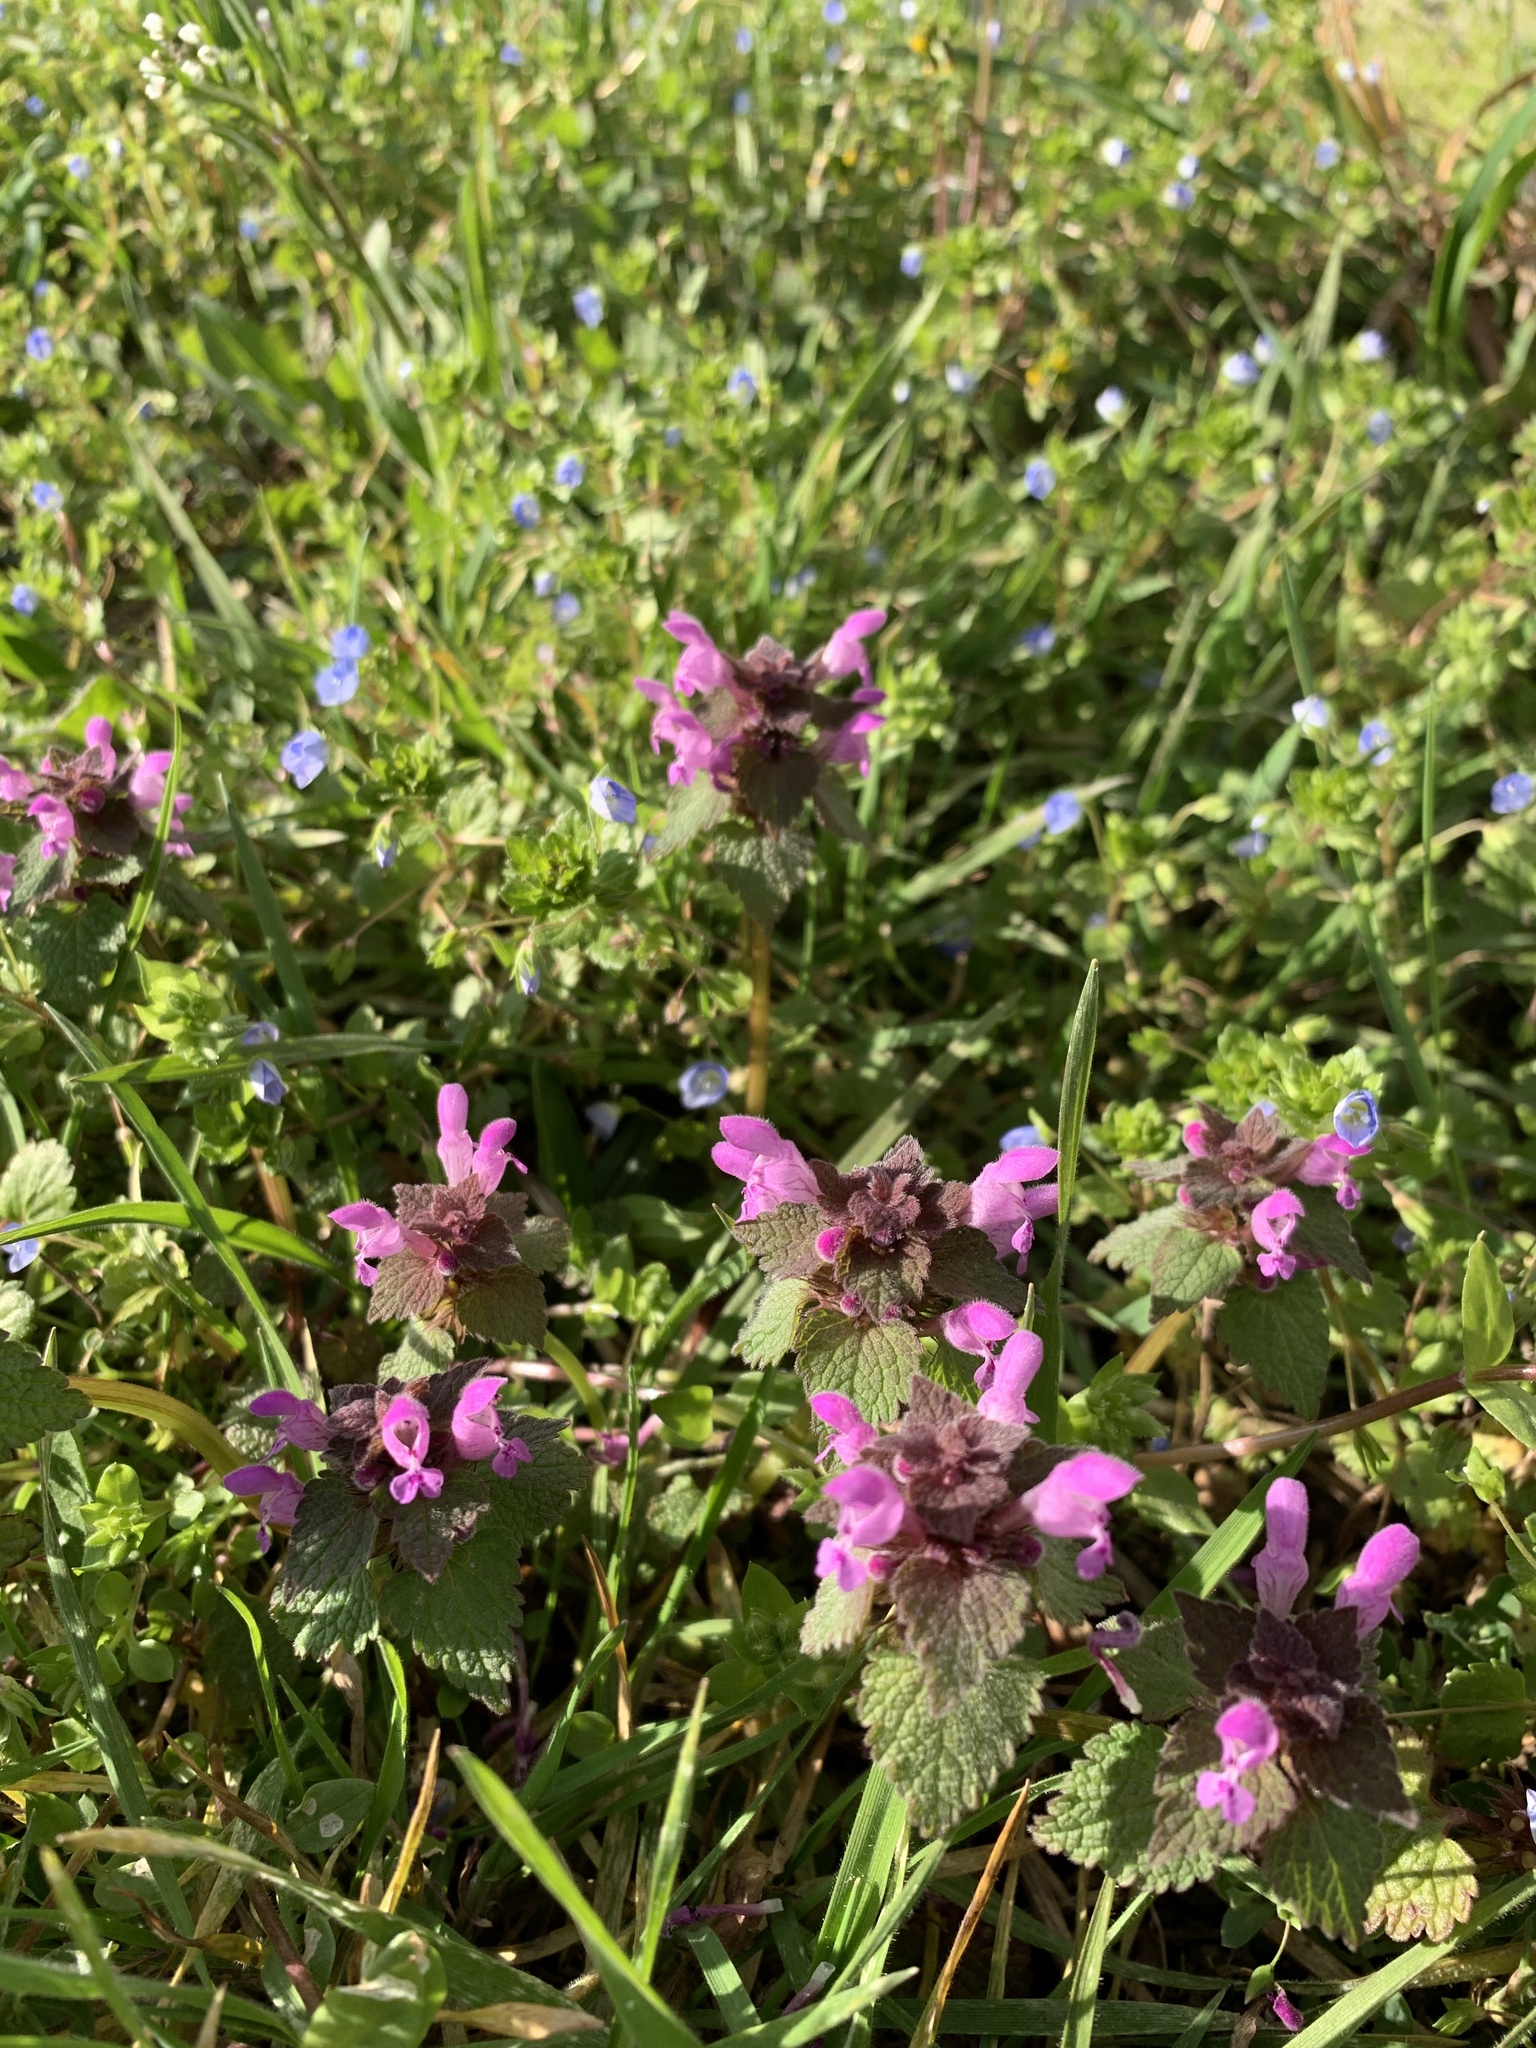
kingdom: Plantae
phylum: Tracheophyta
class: Magnoliopsida
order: Lamiales
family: Lamiaceae
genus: Lamium
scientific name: Lamium purpureum
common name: Red dead-nettle
